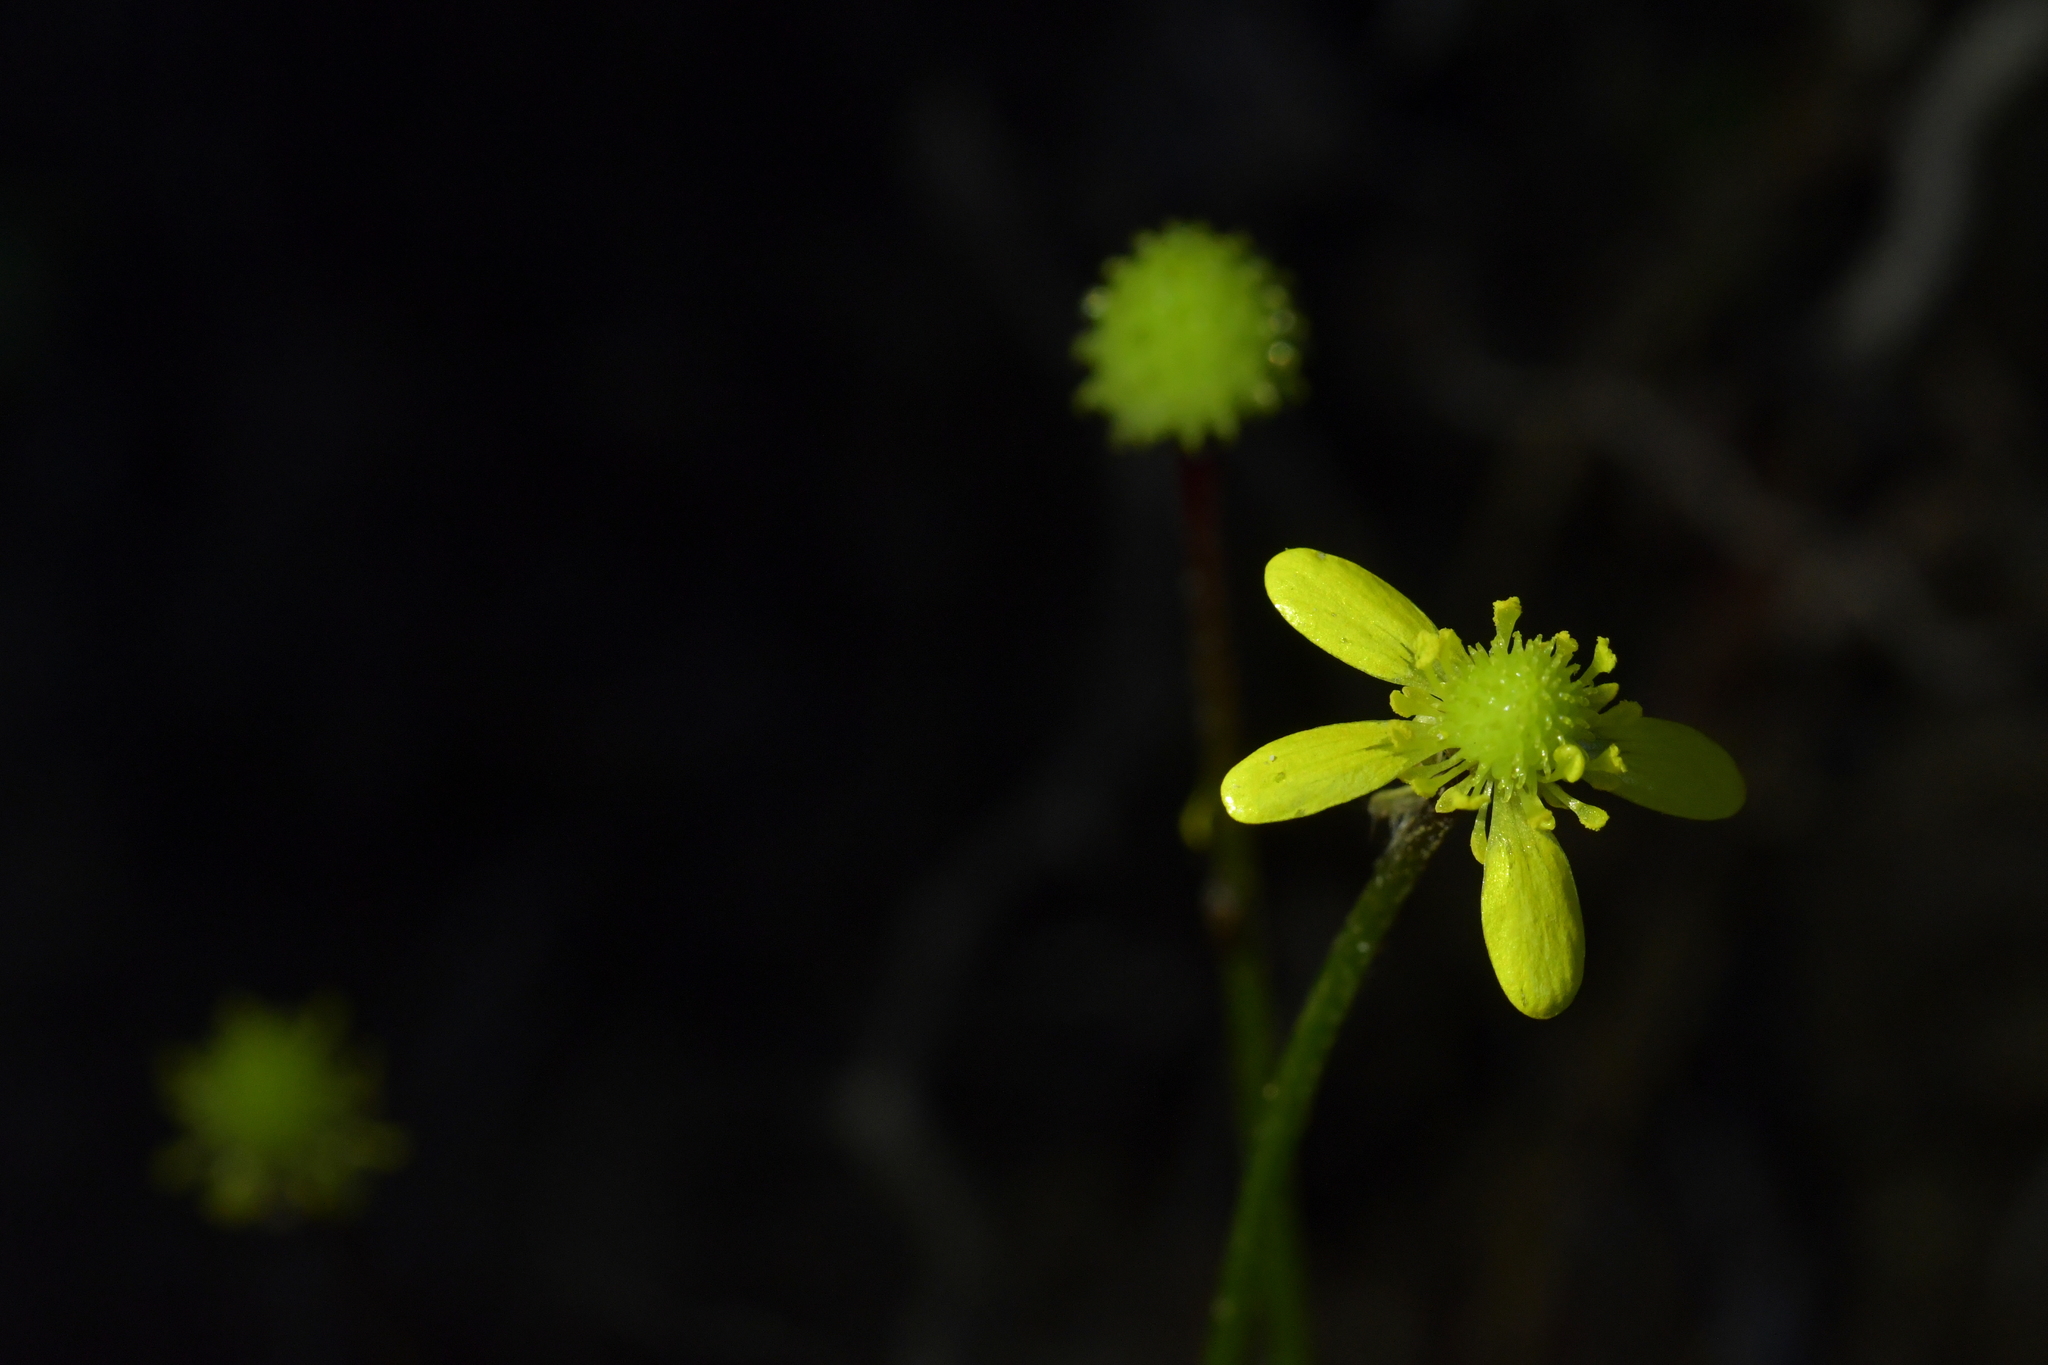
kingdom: Plantae
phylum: Tracheophyta
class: Magnoliopsida
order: Ranunculales
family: Ranunculaceae
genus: Ranunculus
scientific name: Ranunculus reflexus
